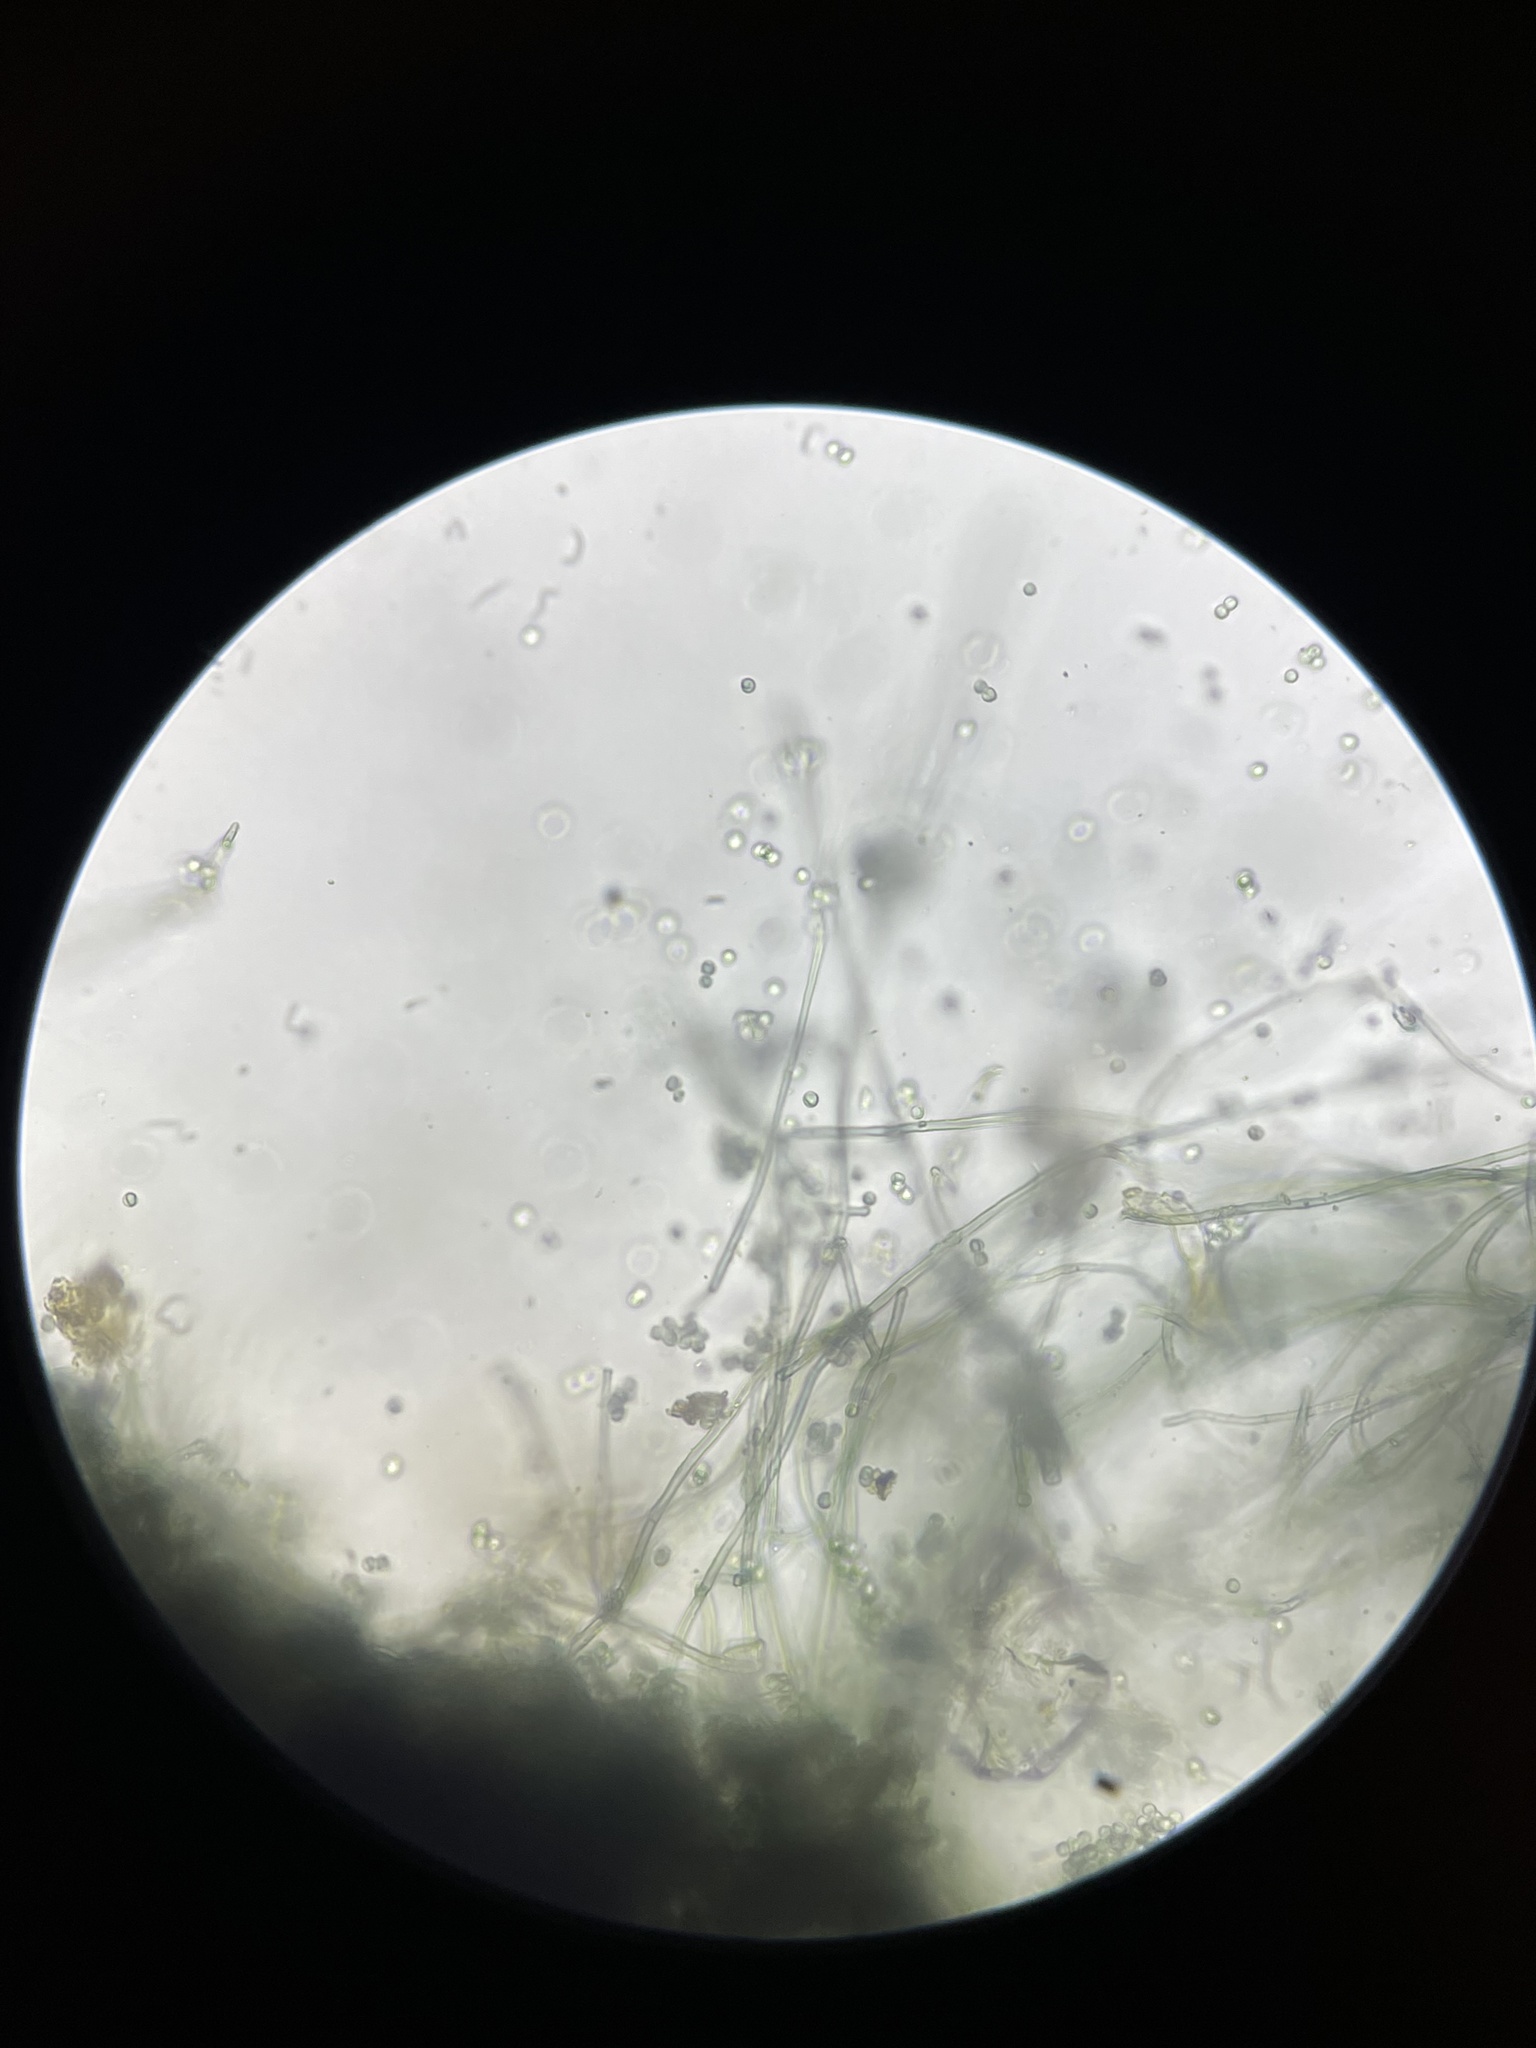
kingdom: Fungi
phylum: Basidiomycota
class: Agaricomycetes
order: Atheliales
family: Atheliaceae
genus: Byssocorticium
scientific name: Byssocorticium atrovirens
